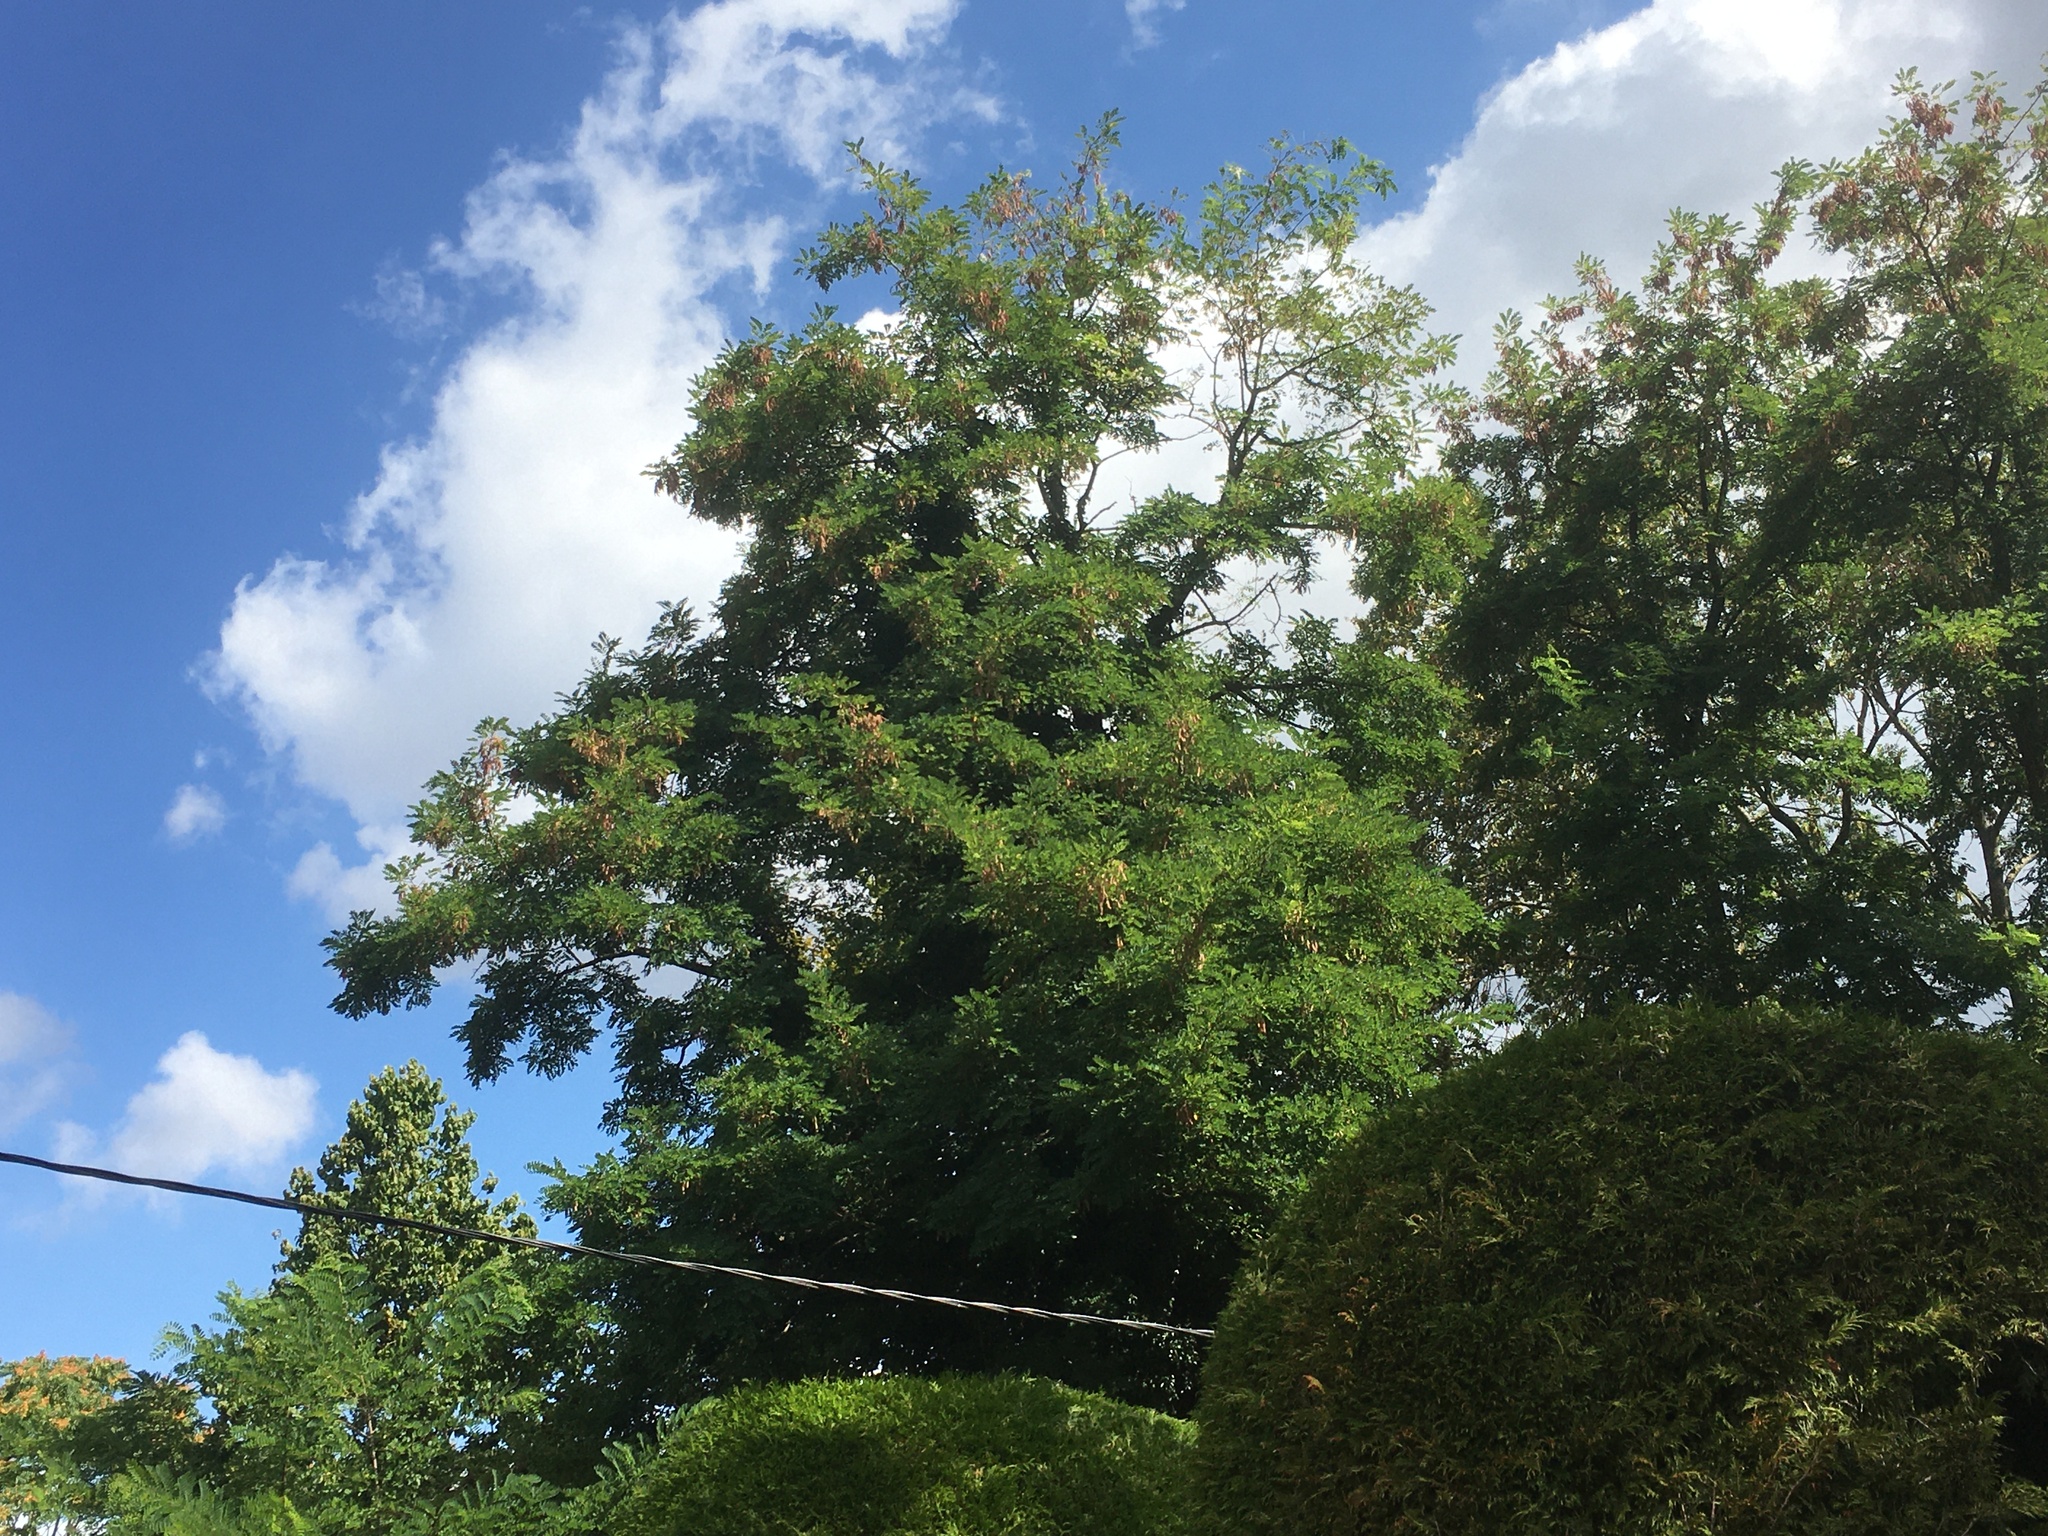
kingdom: Animalia
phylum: Arthropoda
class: Insecta
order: Hymenoptera
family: Vespidae
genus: Vespa
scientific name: Vespa velutina
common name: Asian hornet
